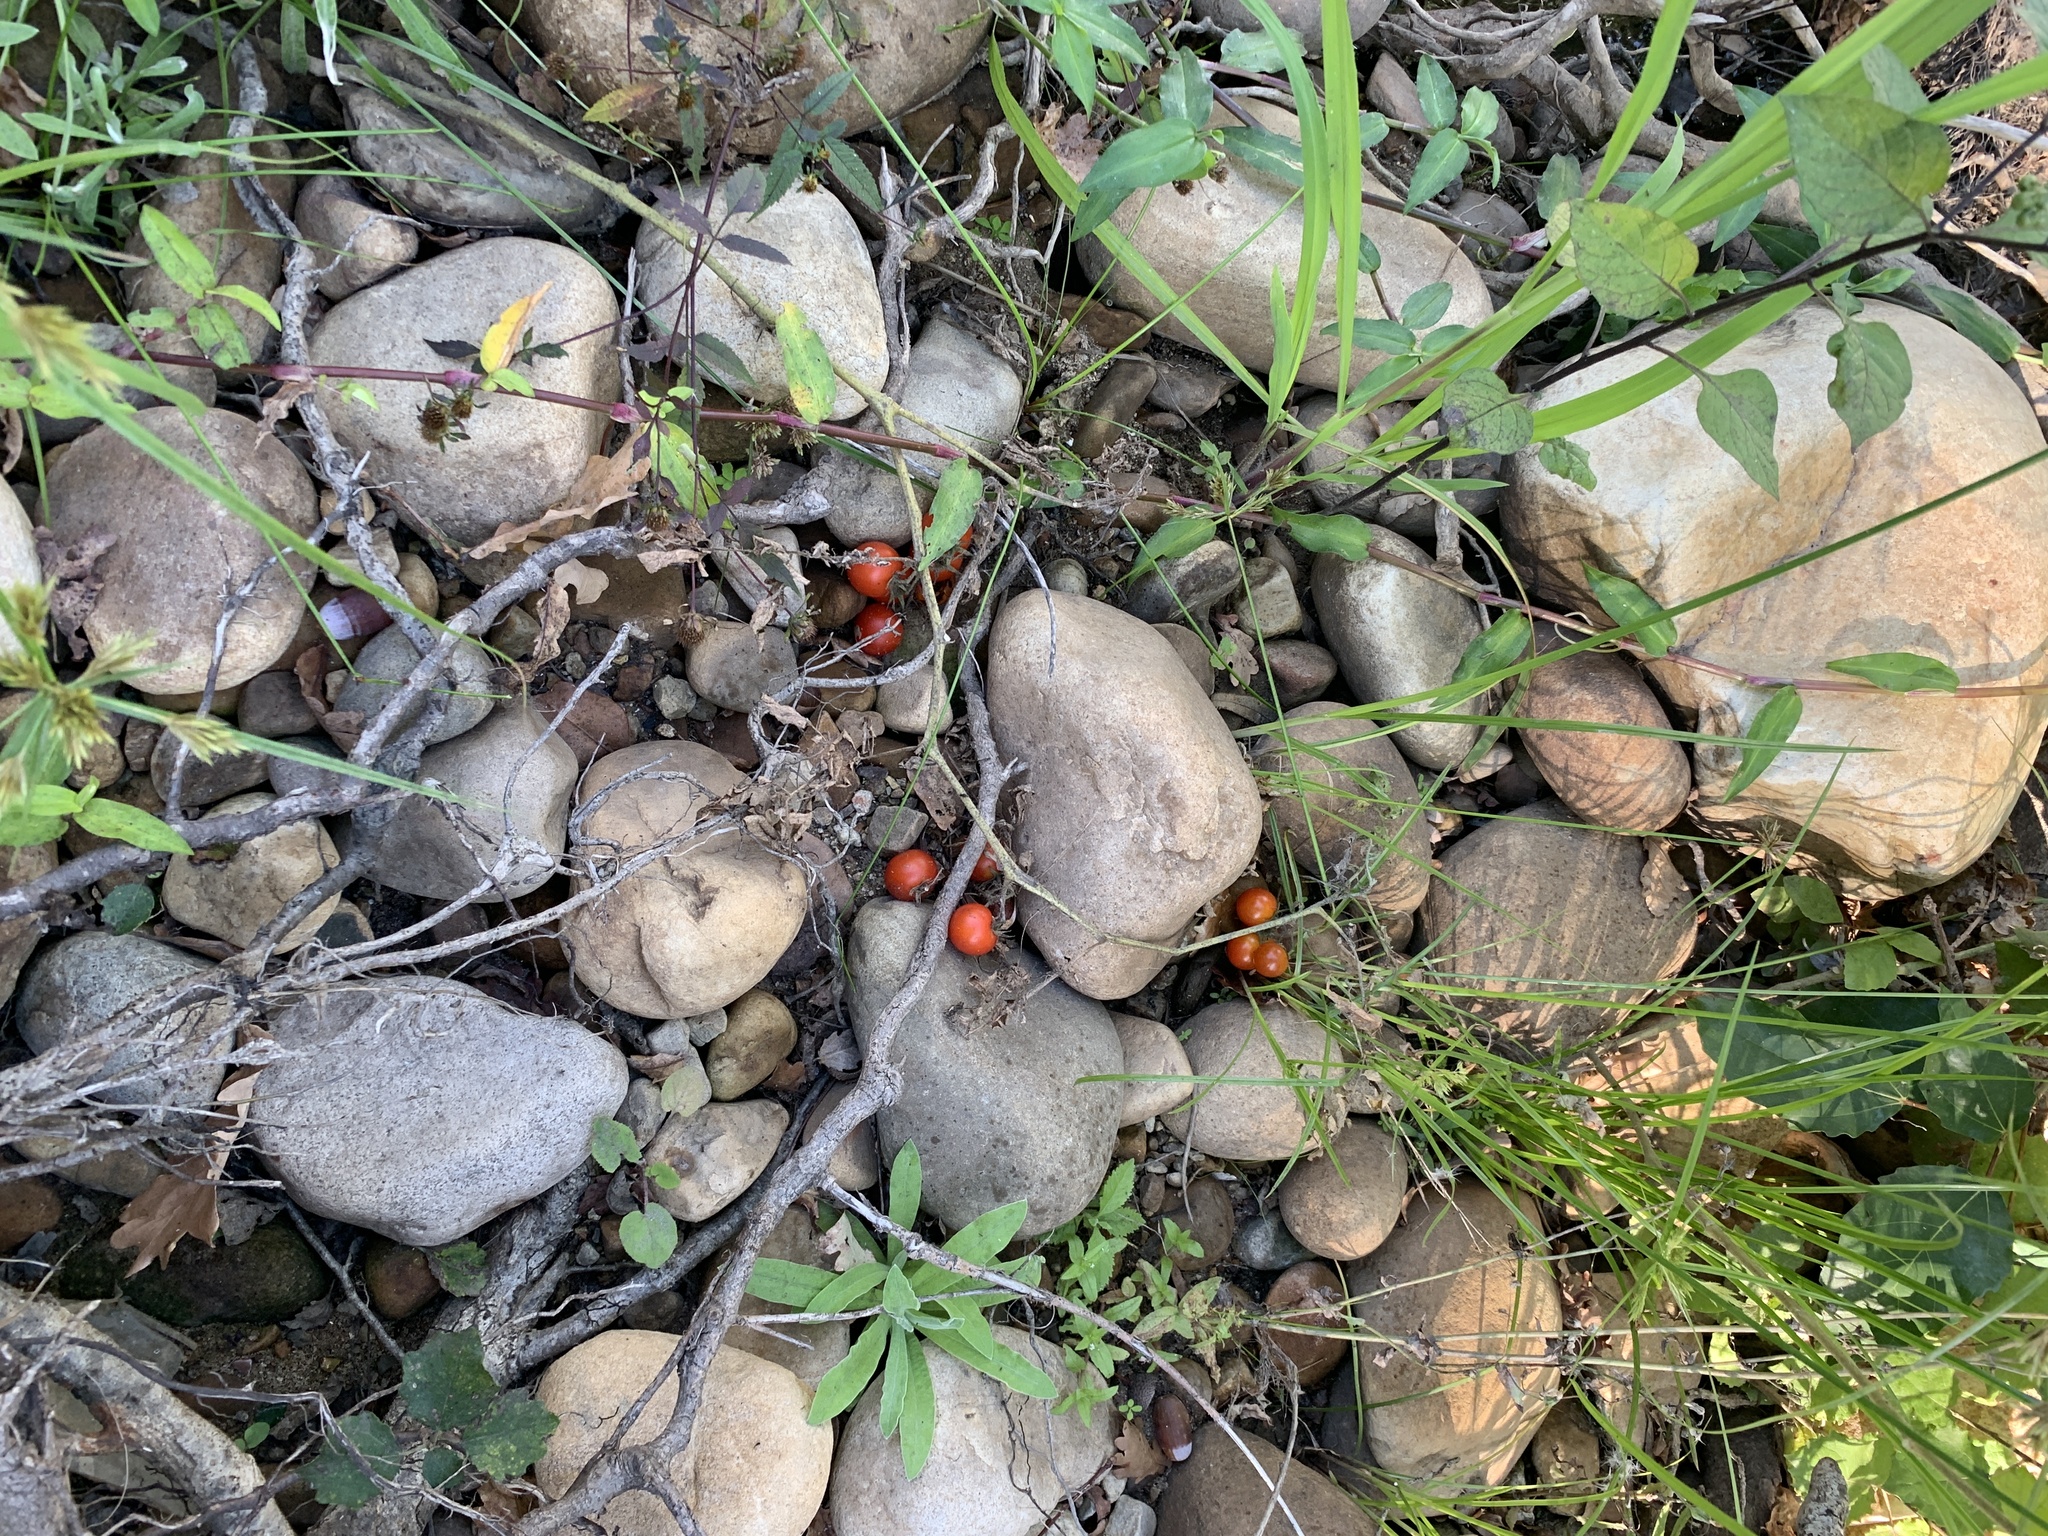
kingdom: Plantae
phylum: Tracheophyta
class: Magnoliopsida
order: Solanales
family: Solanaceae
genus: Solanum
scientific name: Solanum lycopersicum
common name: Garden tomato
